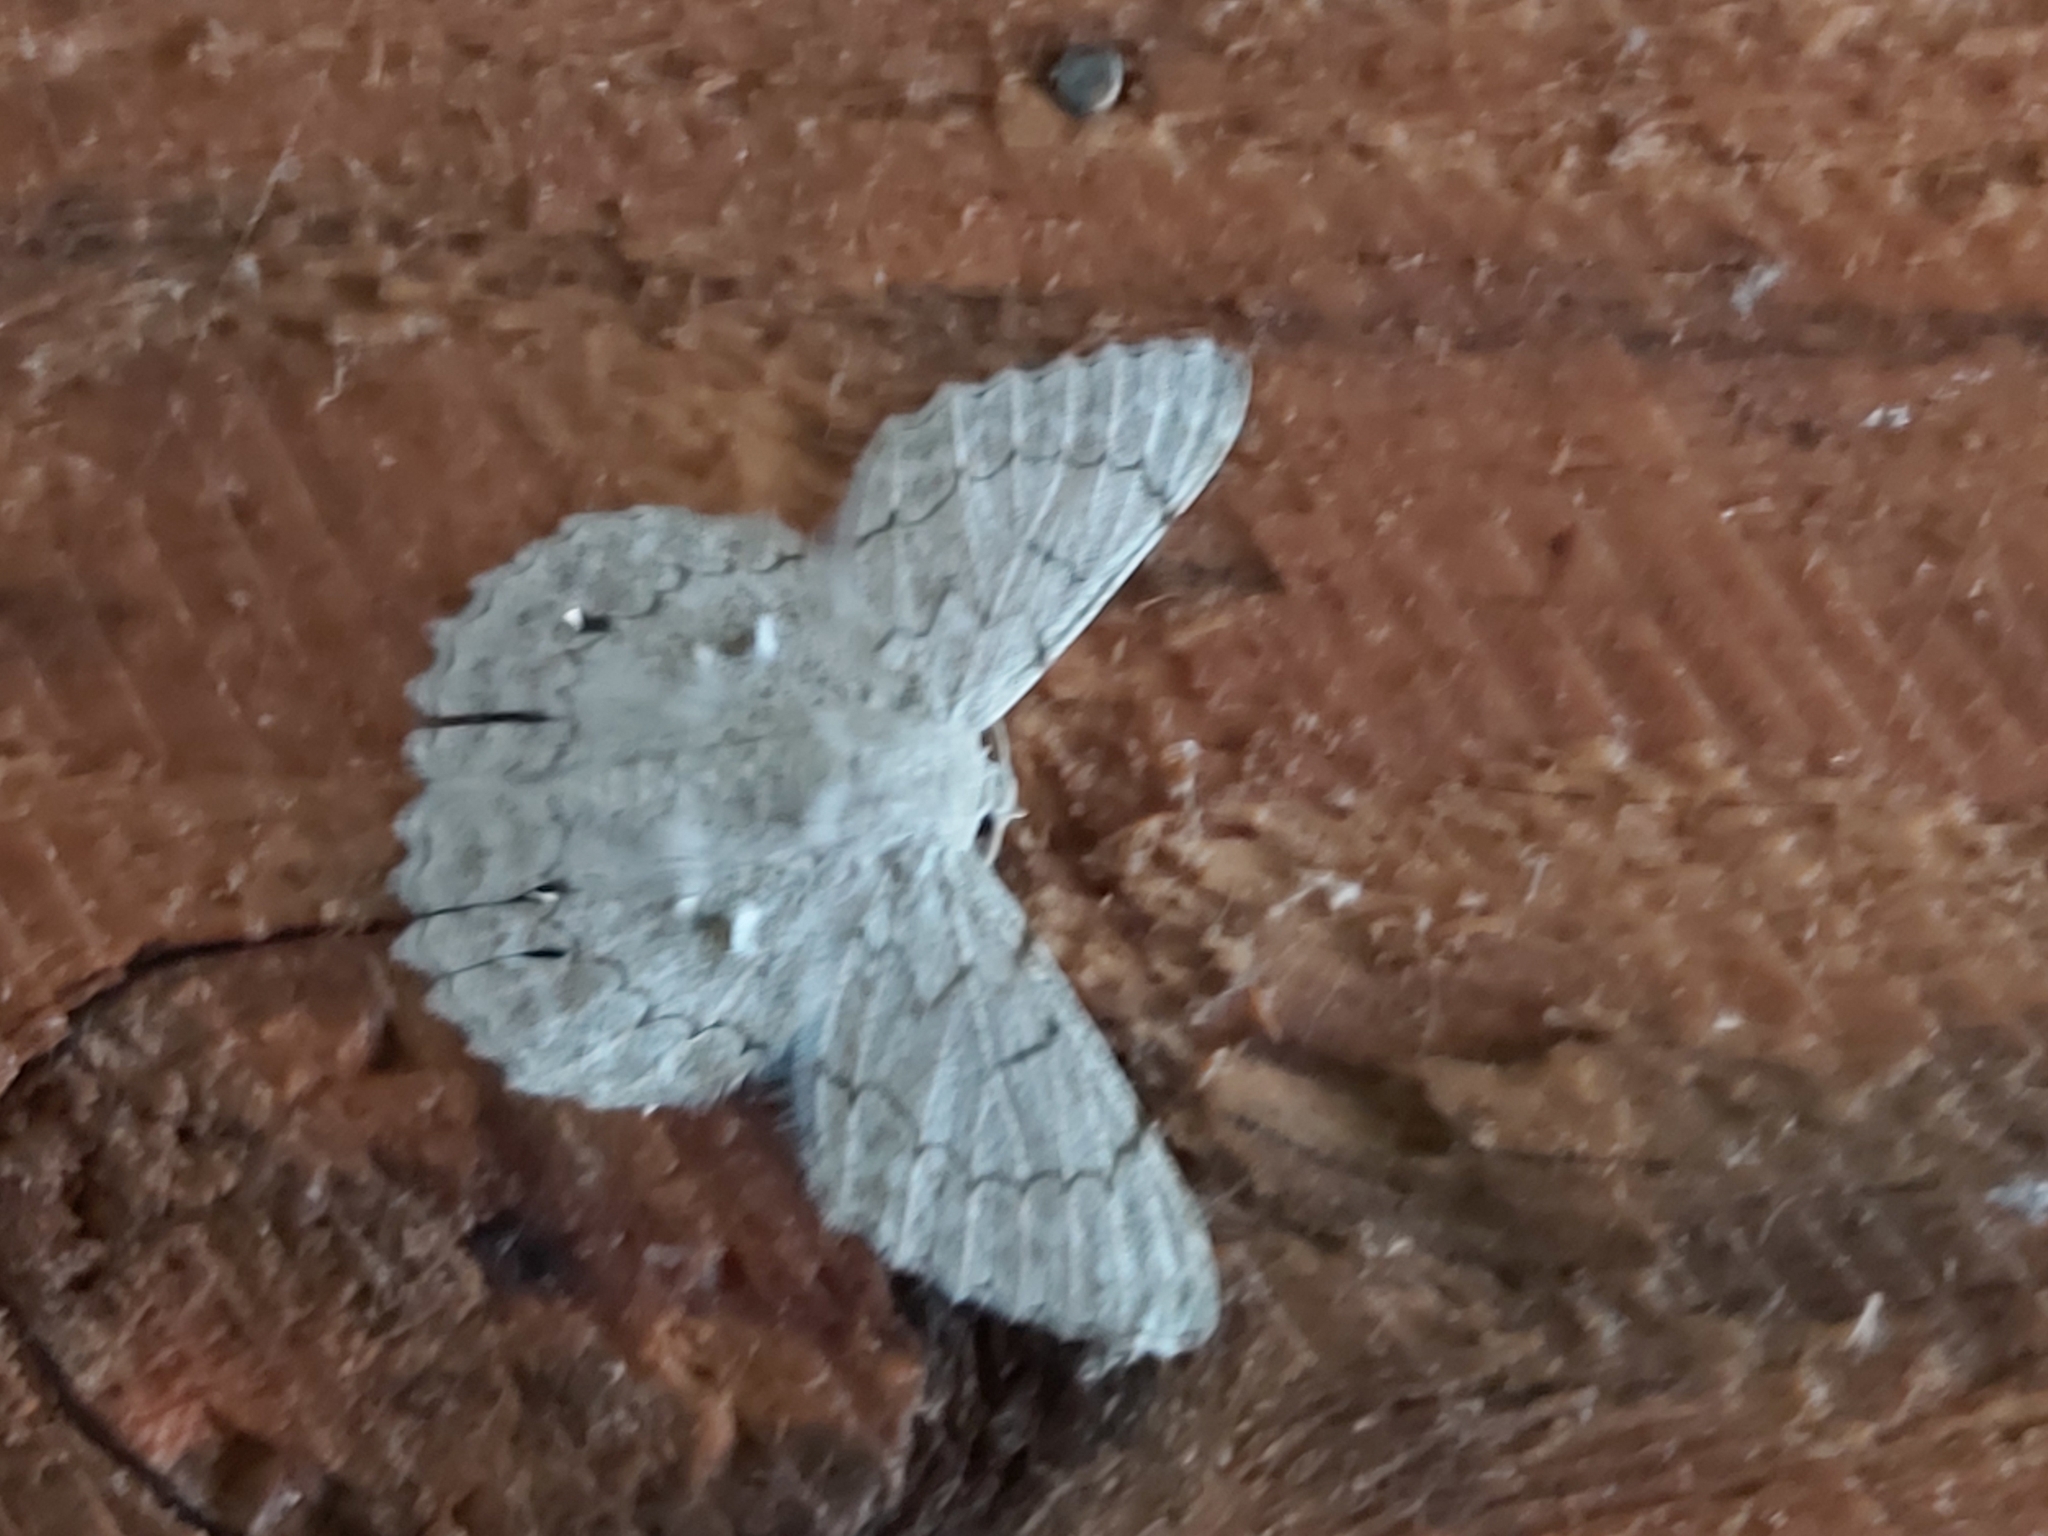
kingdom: Animalia
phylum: Arthropoda
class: Insecta
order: Lepidoptera
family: Geometridae
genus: Pingasa
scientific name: Pingasa chlora
